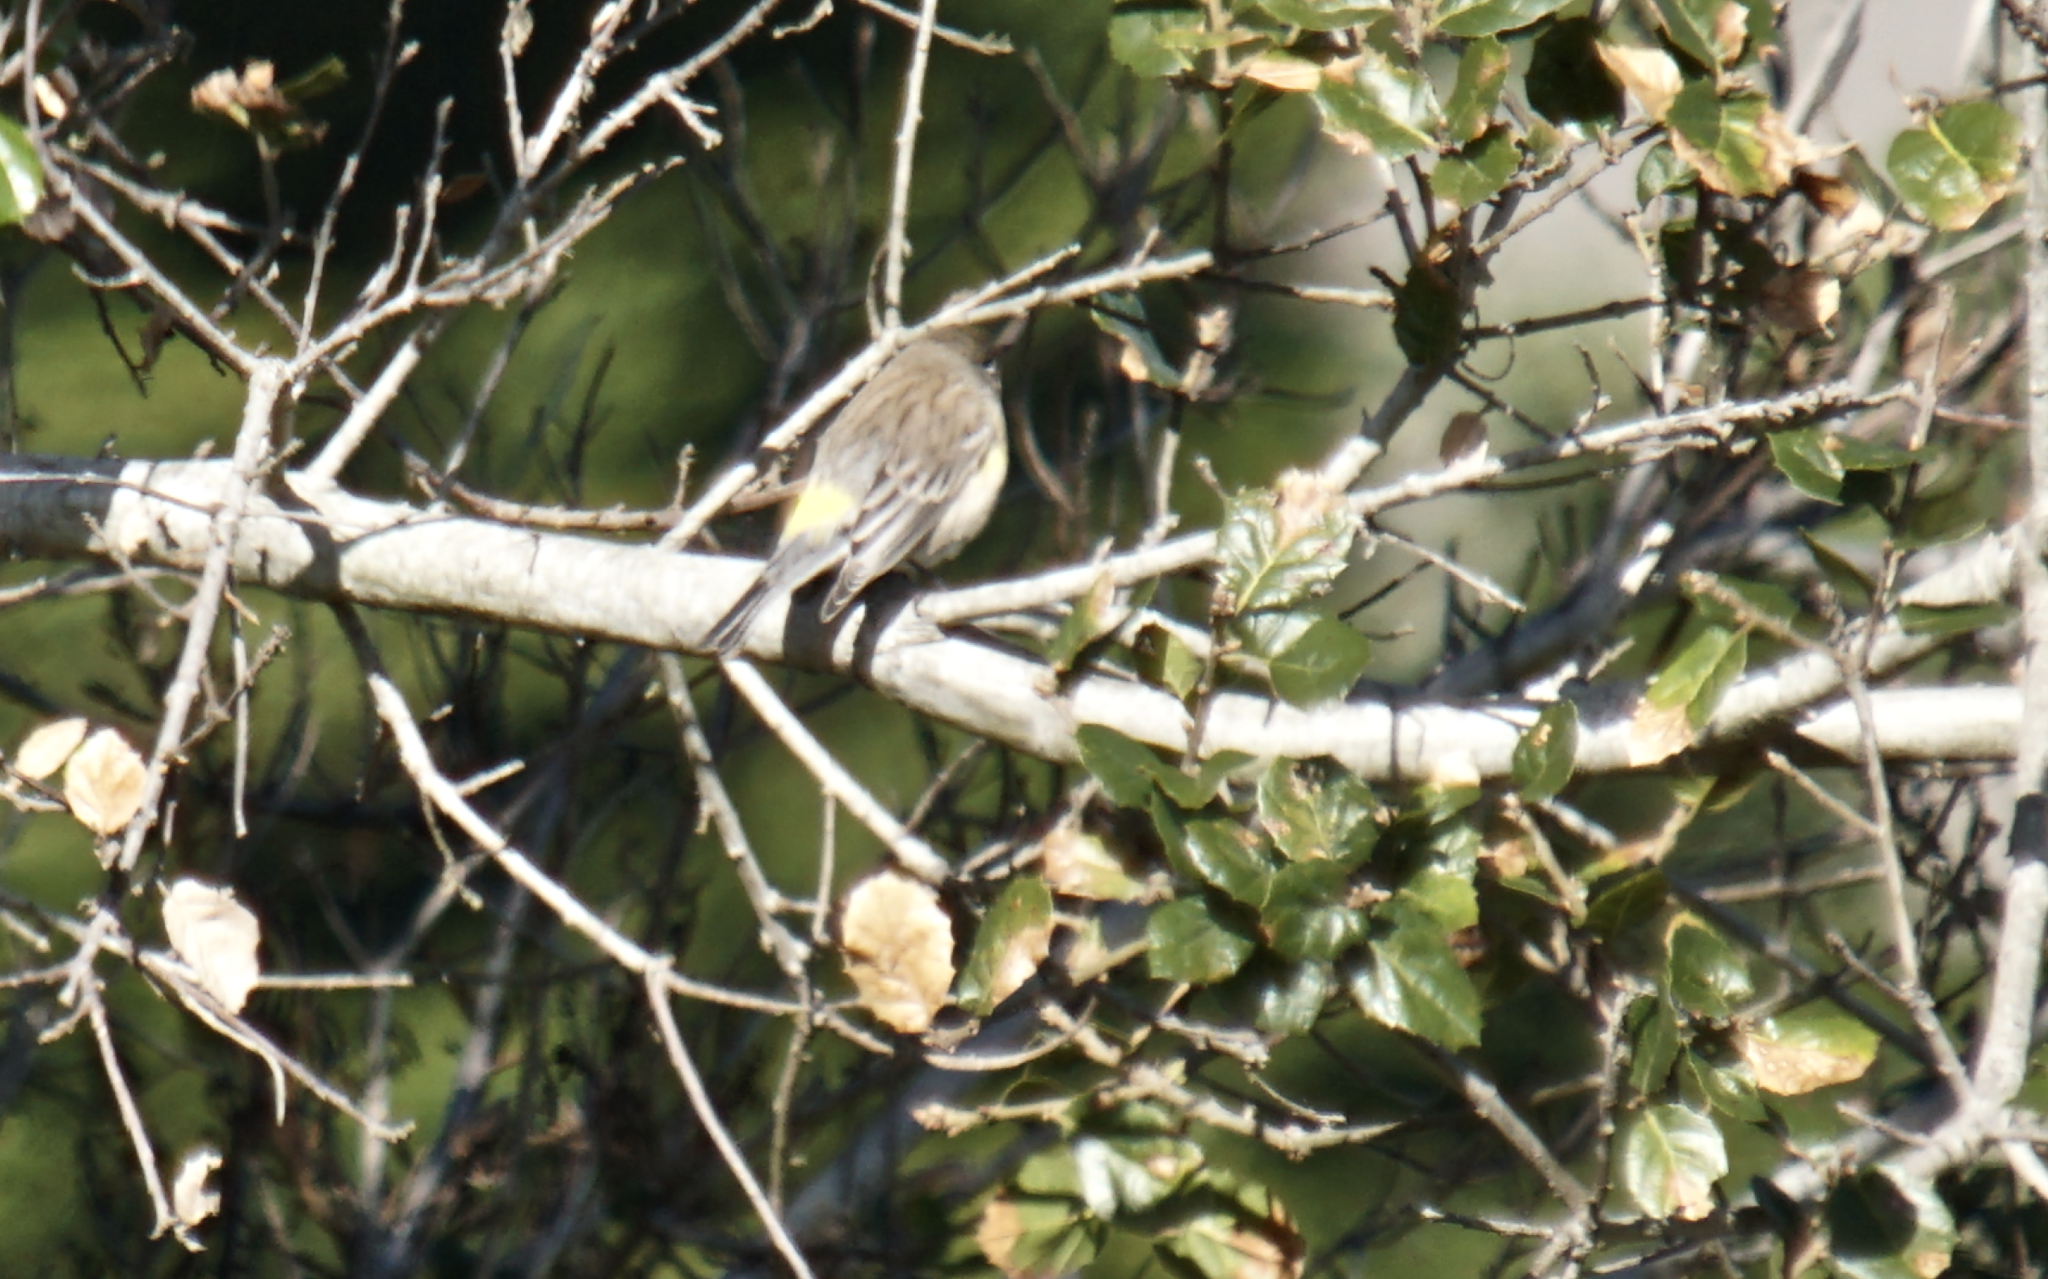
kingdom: Animalia
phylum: Chordata
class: Aves
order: Passeriformes
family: Parulidae
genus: Setophaga
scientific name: Setophaga coronata
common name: Myrtle warbler
